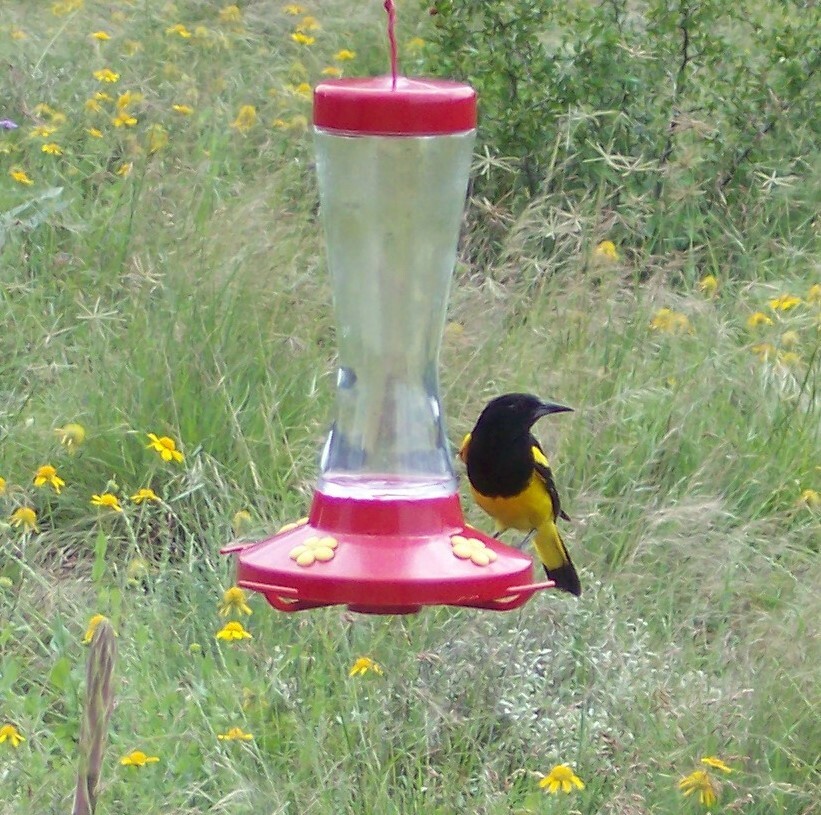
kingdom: Animalia
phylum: Chordata
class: Aves
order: Passeriformes
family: Icteridae
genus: Icterus
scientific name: Icterus parisorum
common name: Scott's oriole
